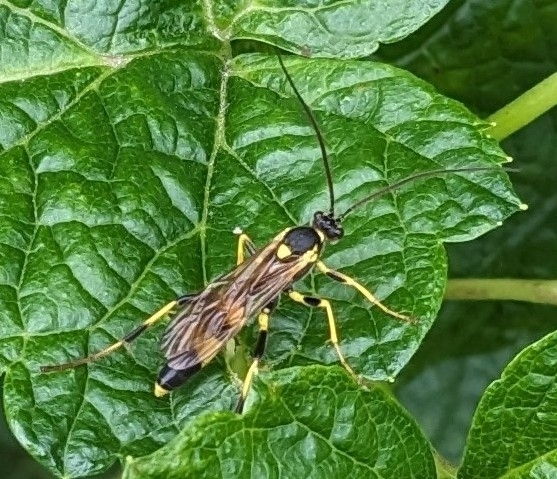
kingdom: Animalia
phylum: Arthropoda
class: Insecta
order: Hymenoptera
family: Ichneumonidae
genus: Amblyteles
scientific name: Amblyteles armatorius
